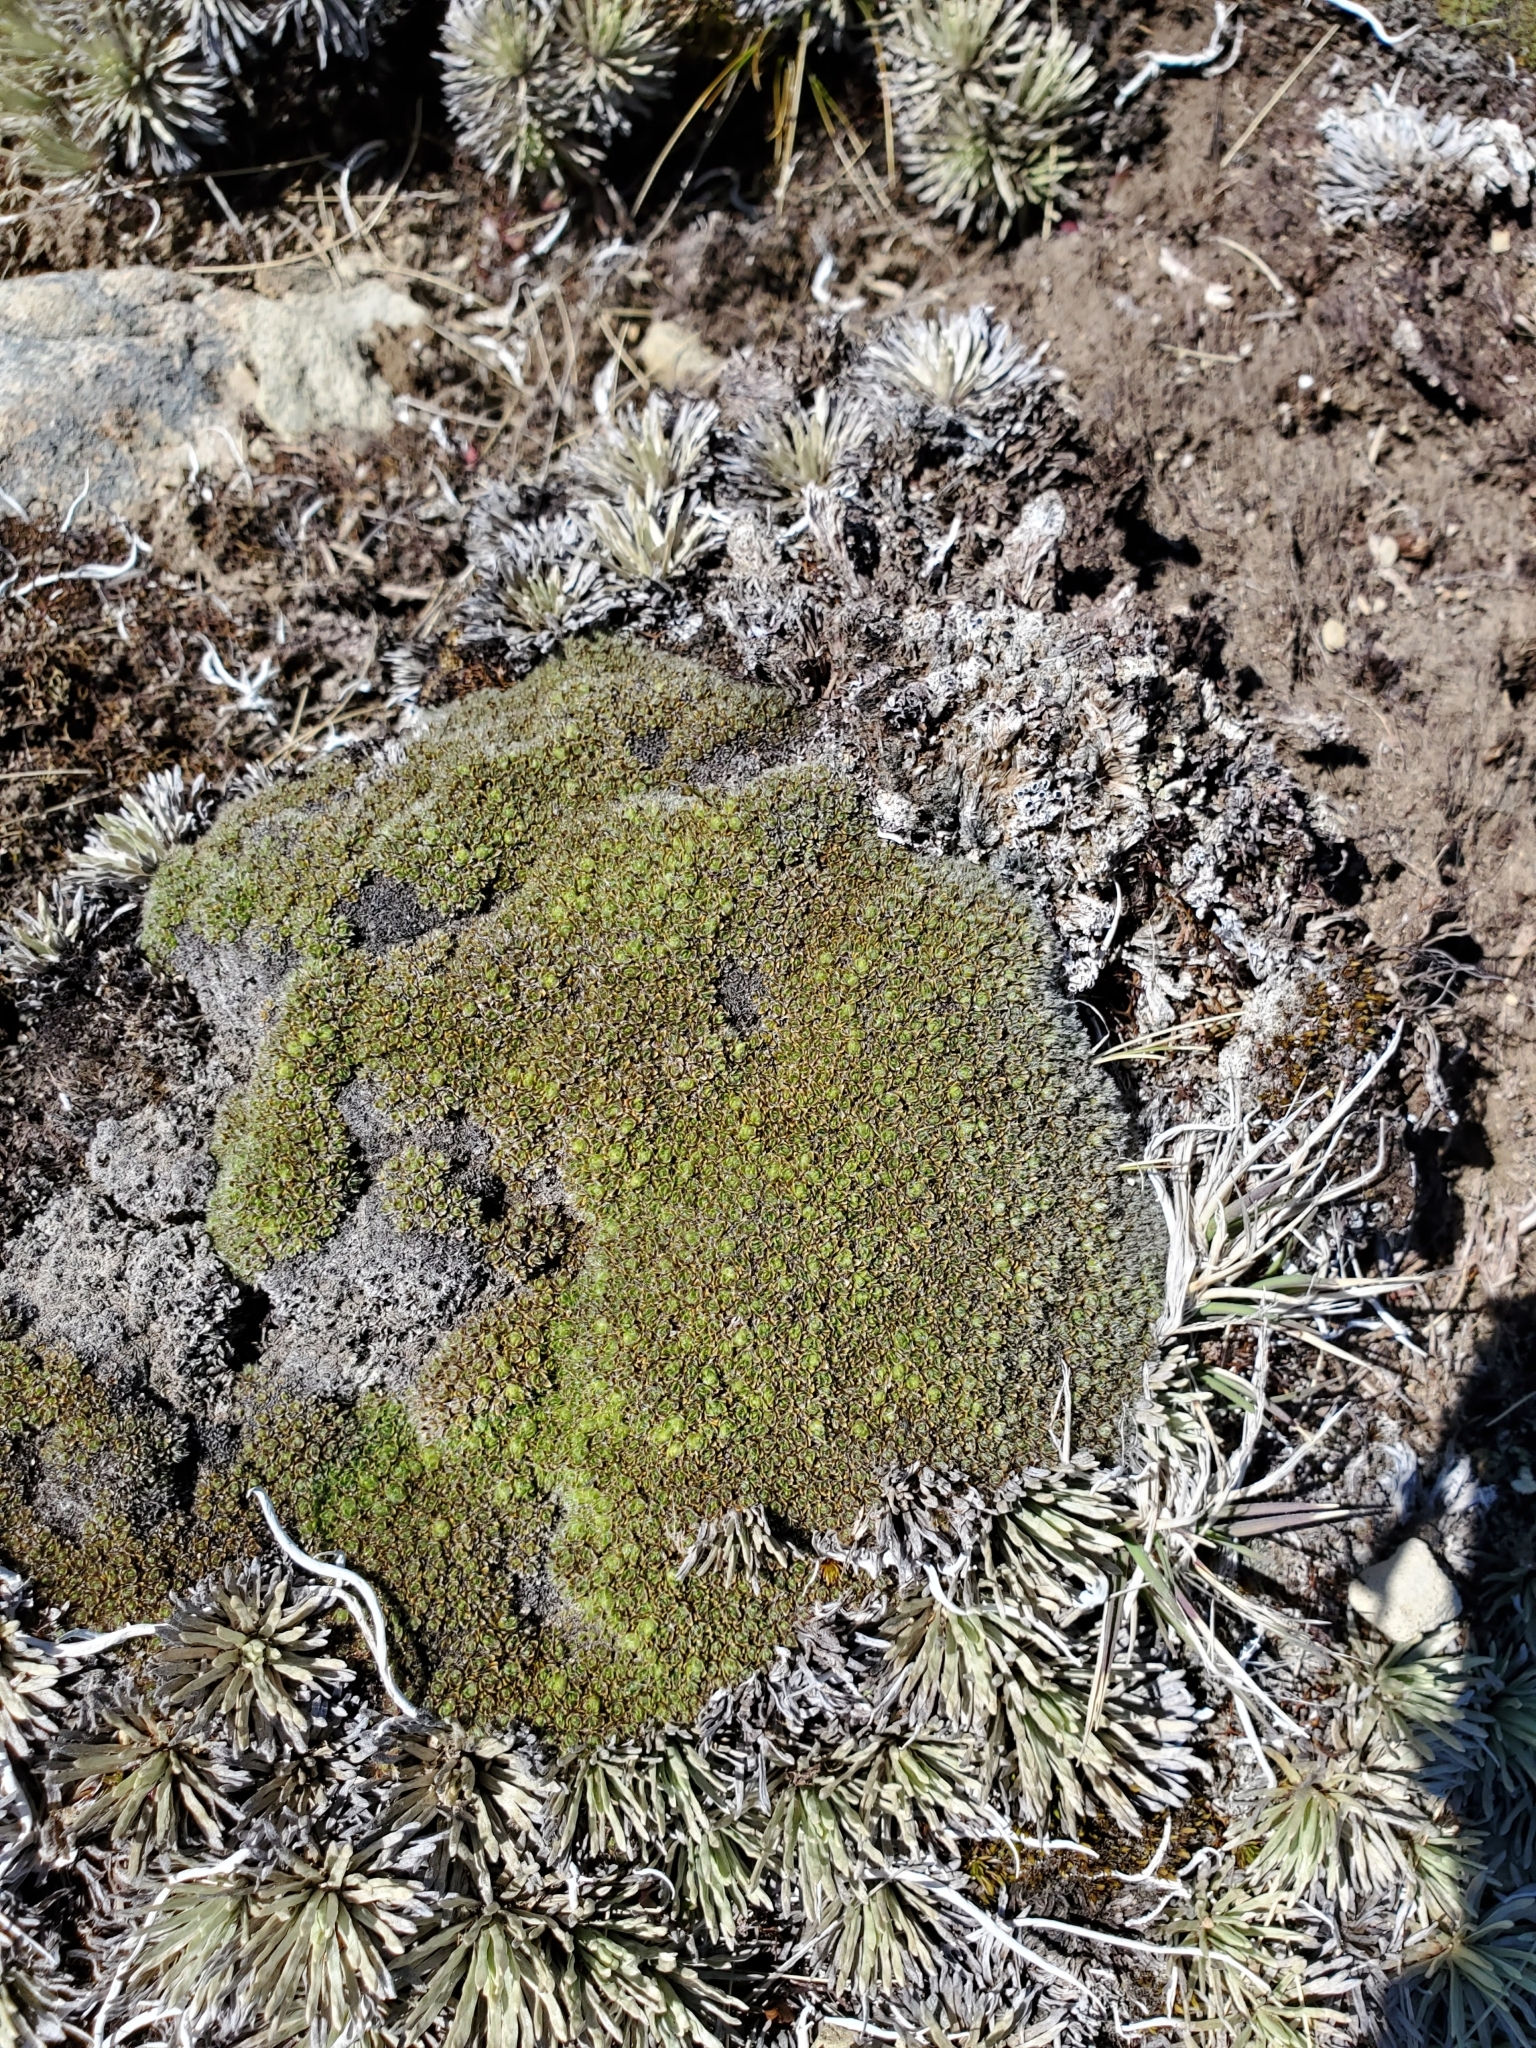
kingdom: Plantae
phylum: Tracheophyta
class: Magnoliopsida
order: Lamiales
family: Plantaginaceae
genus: Veronica
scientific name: Veronica pulvinaris
